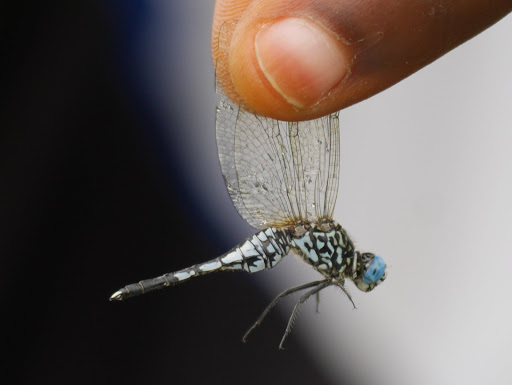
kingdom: Animalia
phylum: Arthropoda
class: Insecta
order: Odonata
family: Libellulidae
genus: Acisoma
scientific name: Acisoma inflatum
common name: Stout pintail
